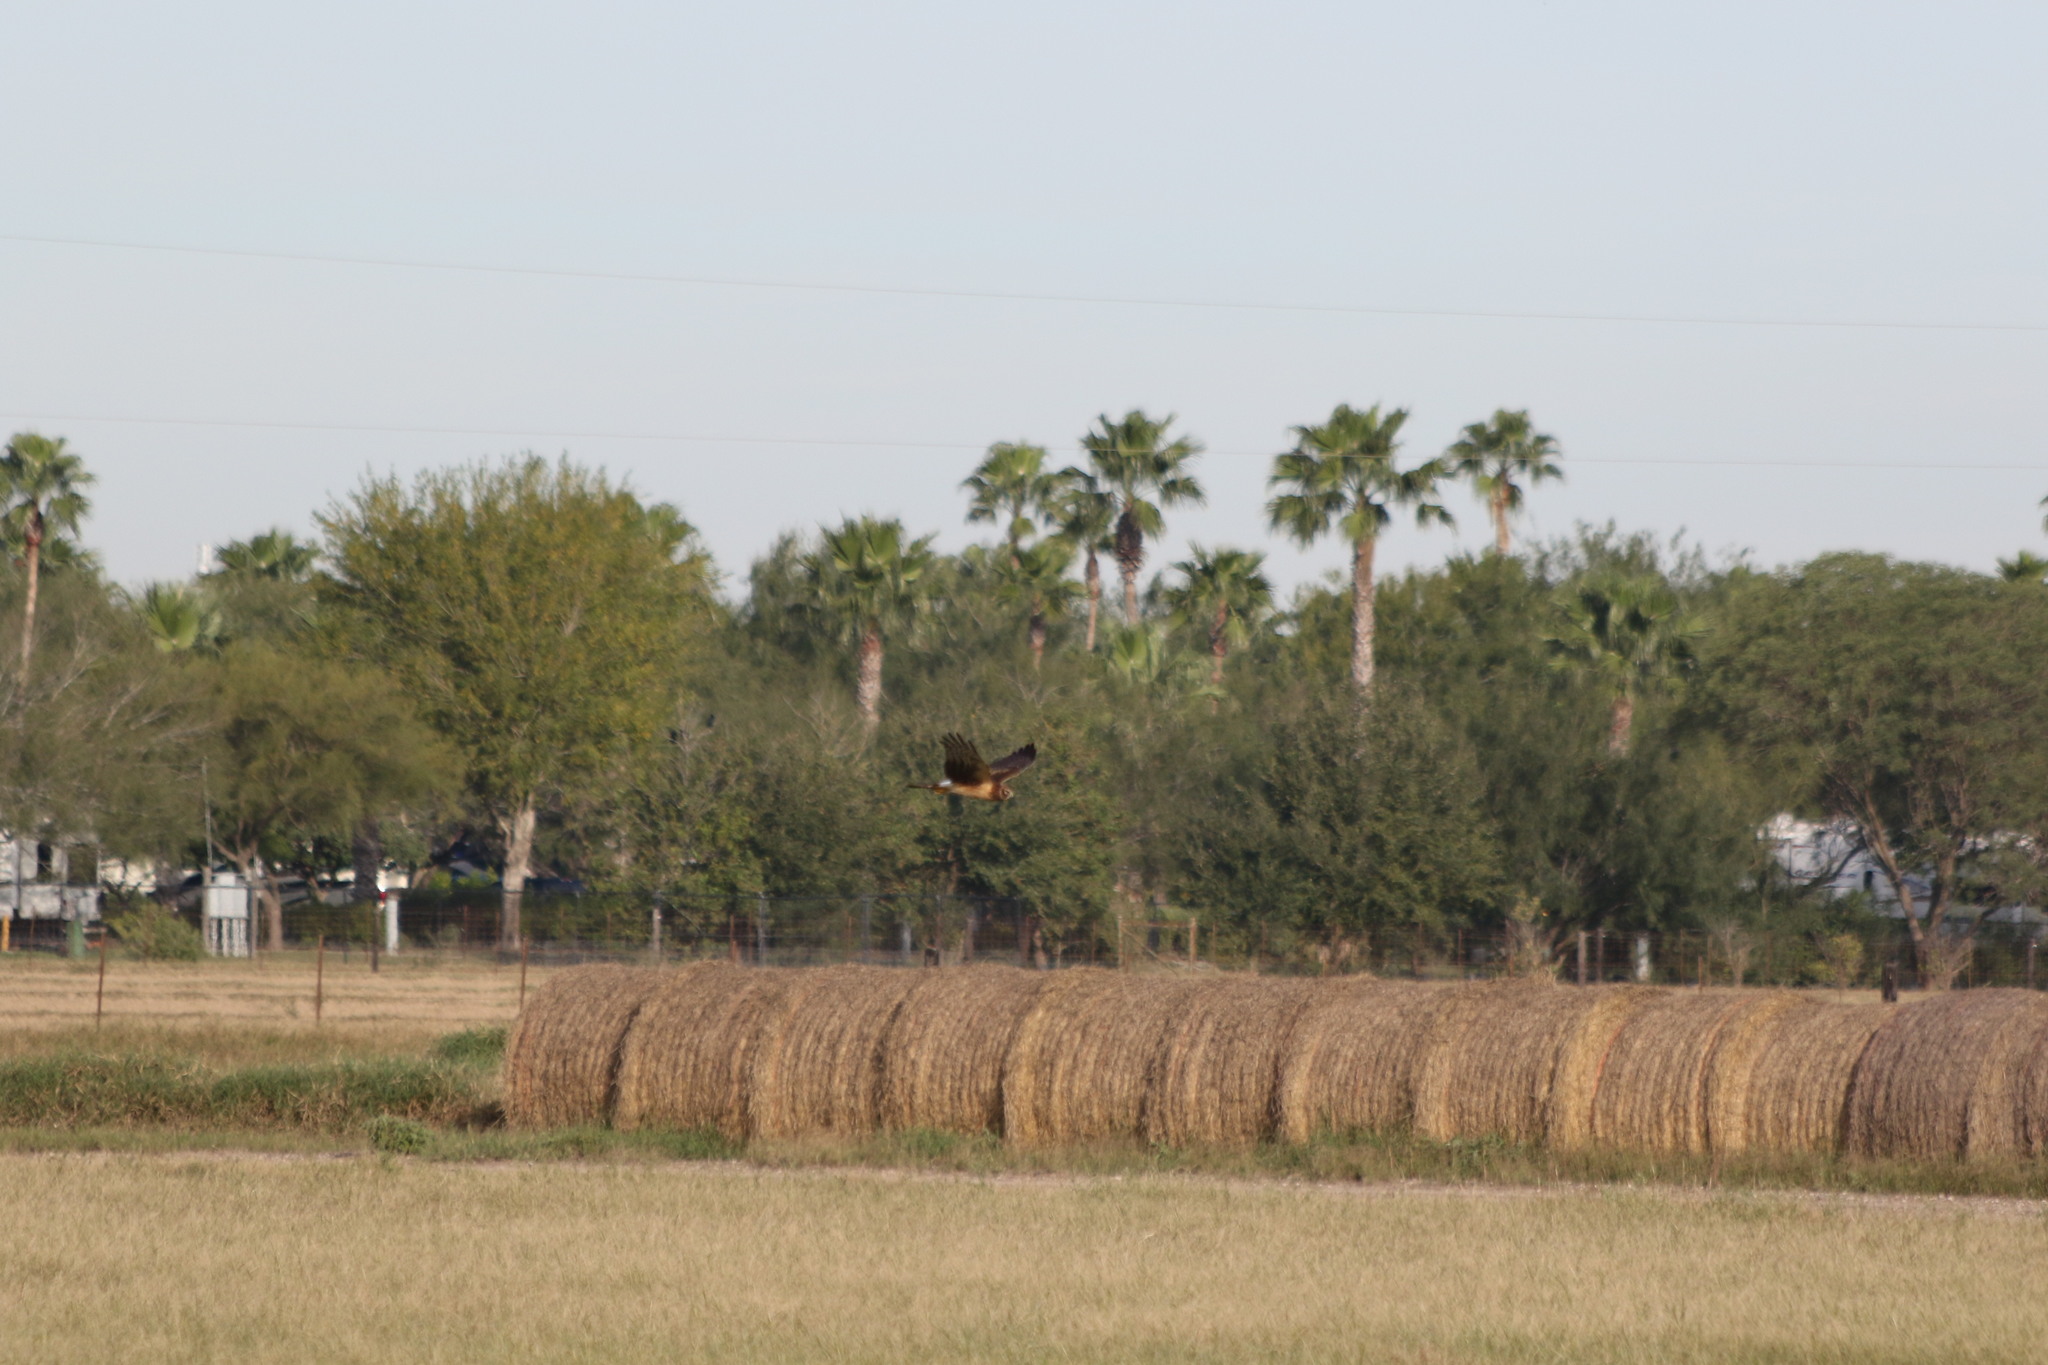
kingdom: Animalia
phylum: Chordata
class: Aves
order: Accipitriformes
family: Accipitridae
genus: Circus
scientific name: Circus cyaneus
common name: Hen harrier
